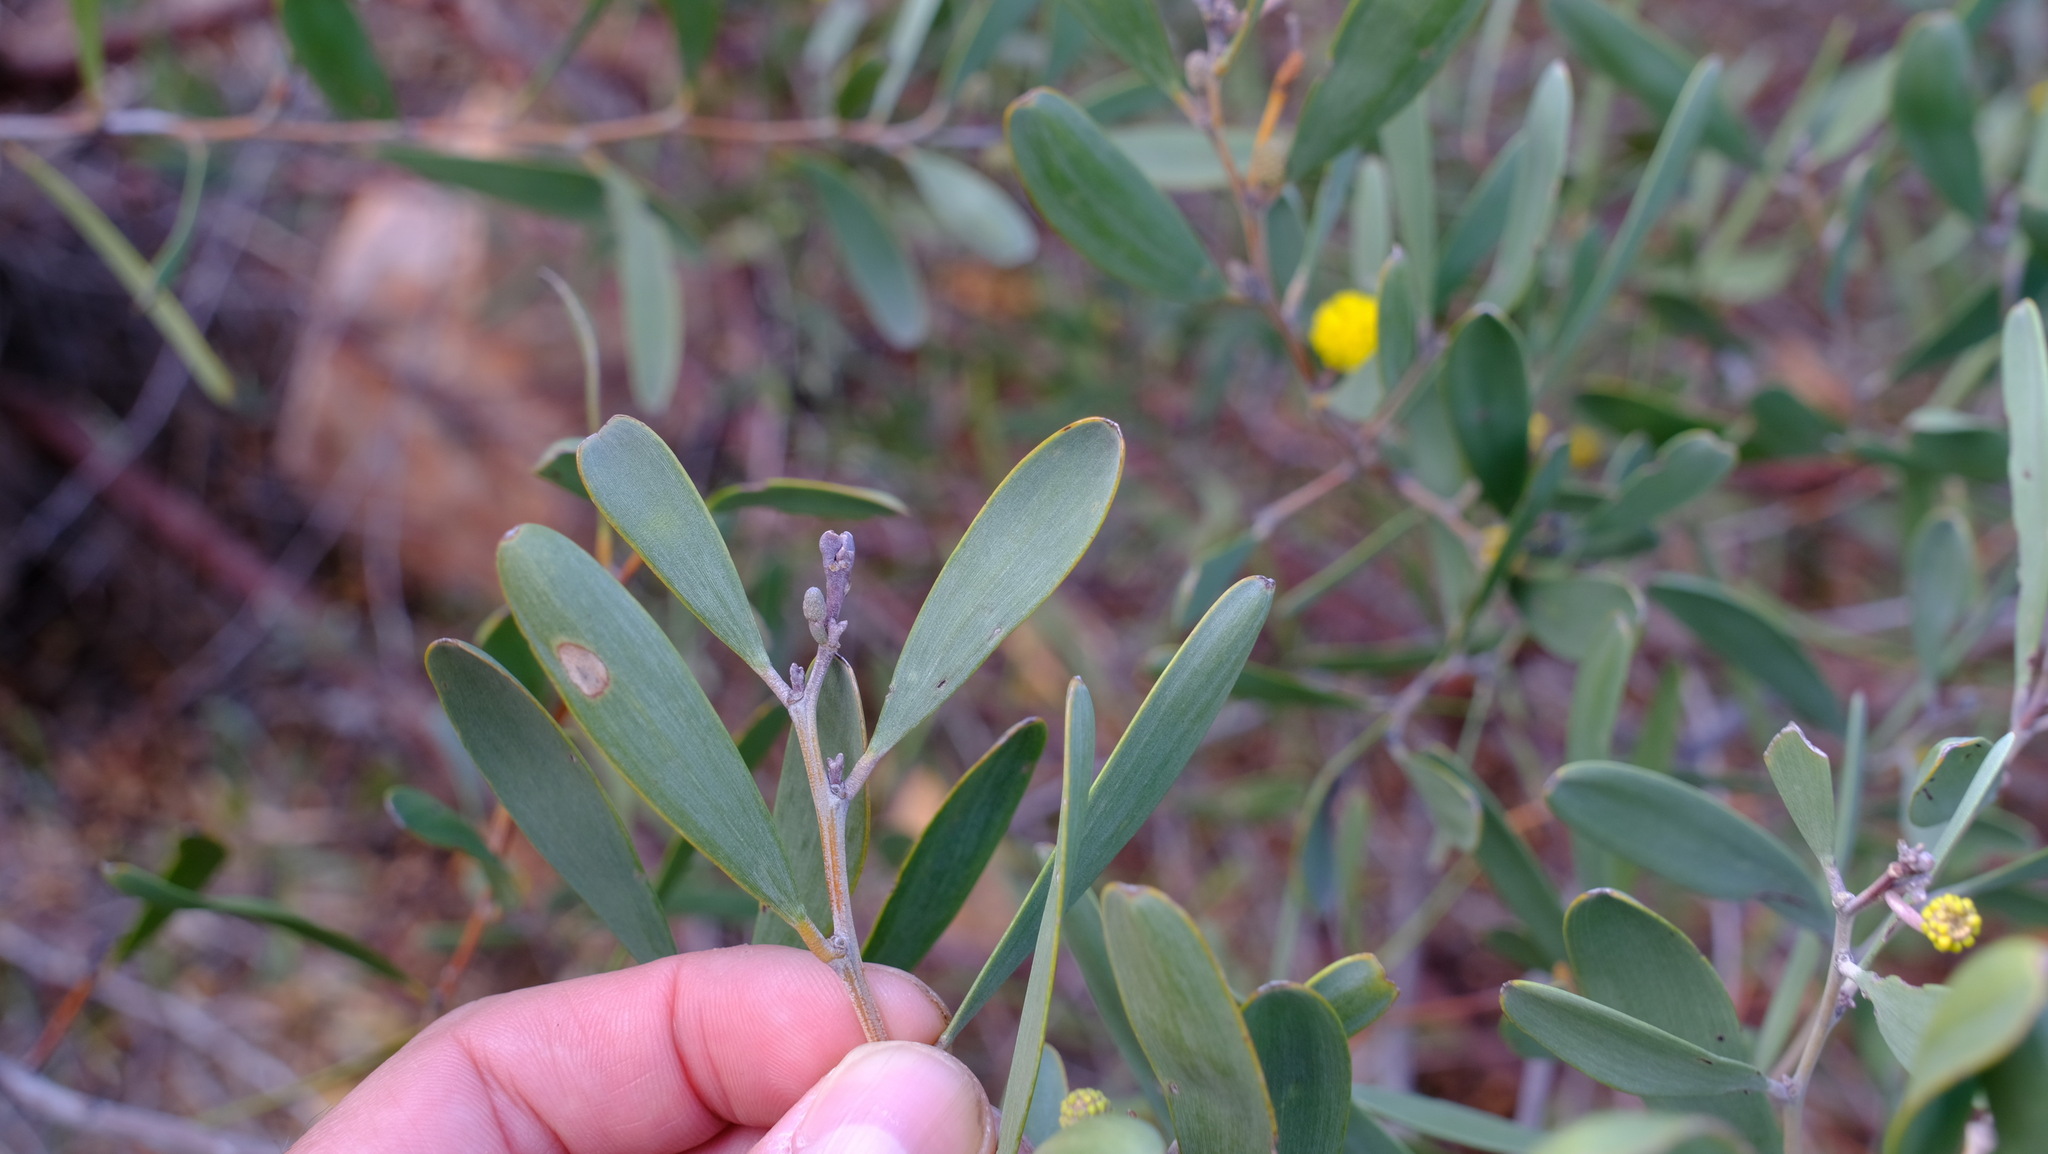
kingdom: Plantae
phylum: Tracheophyta
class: Magnoliopsida
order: Fabales
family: Fabaceae
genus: Acacia
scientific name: Acacia rhodophloia
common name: Minni ritchi
